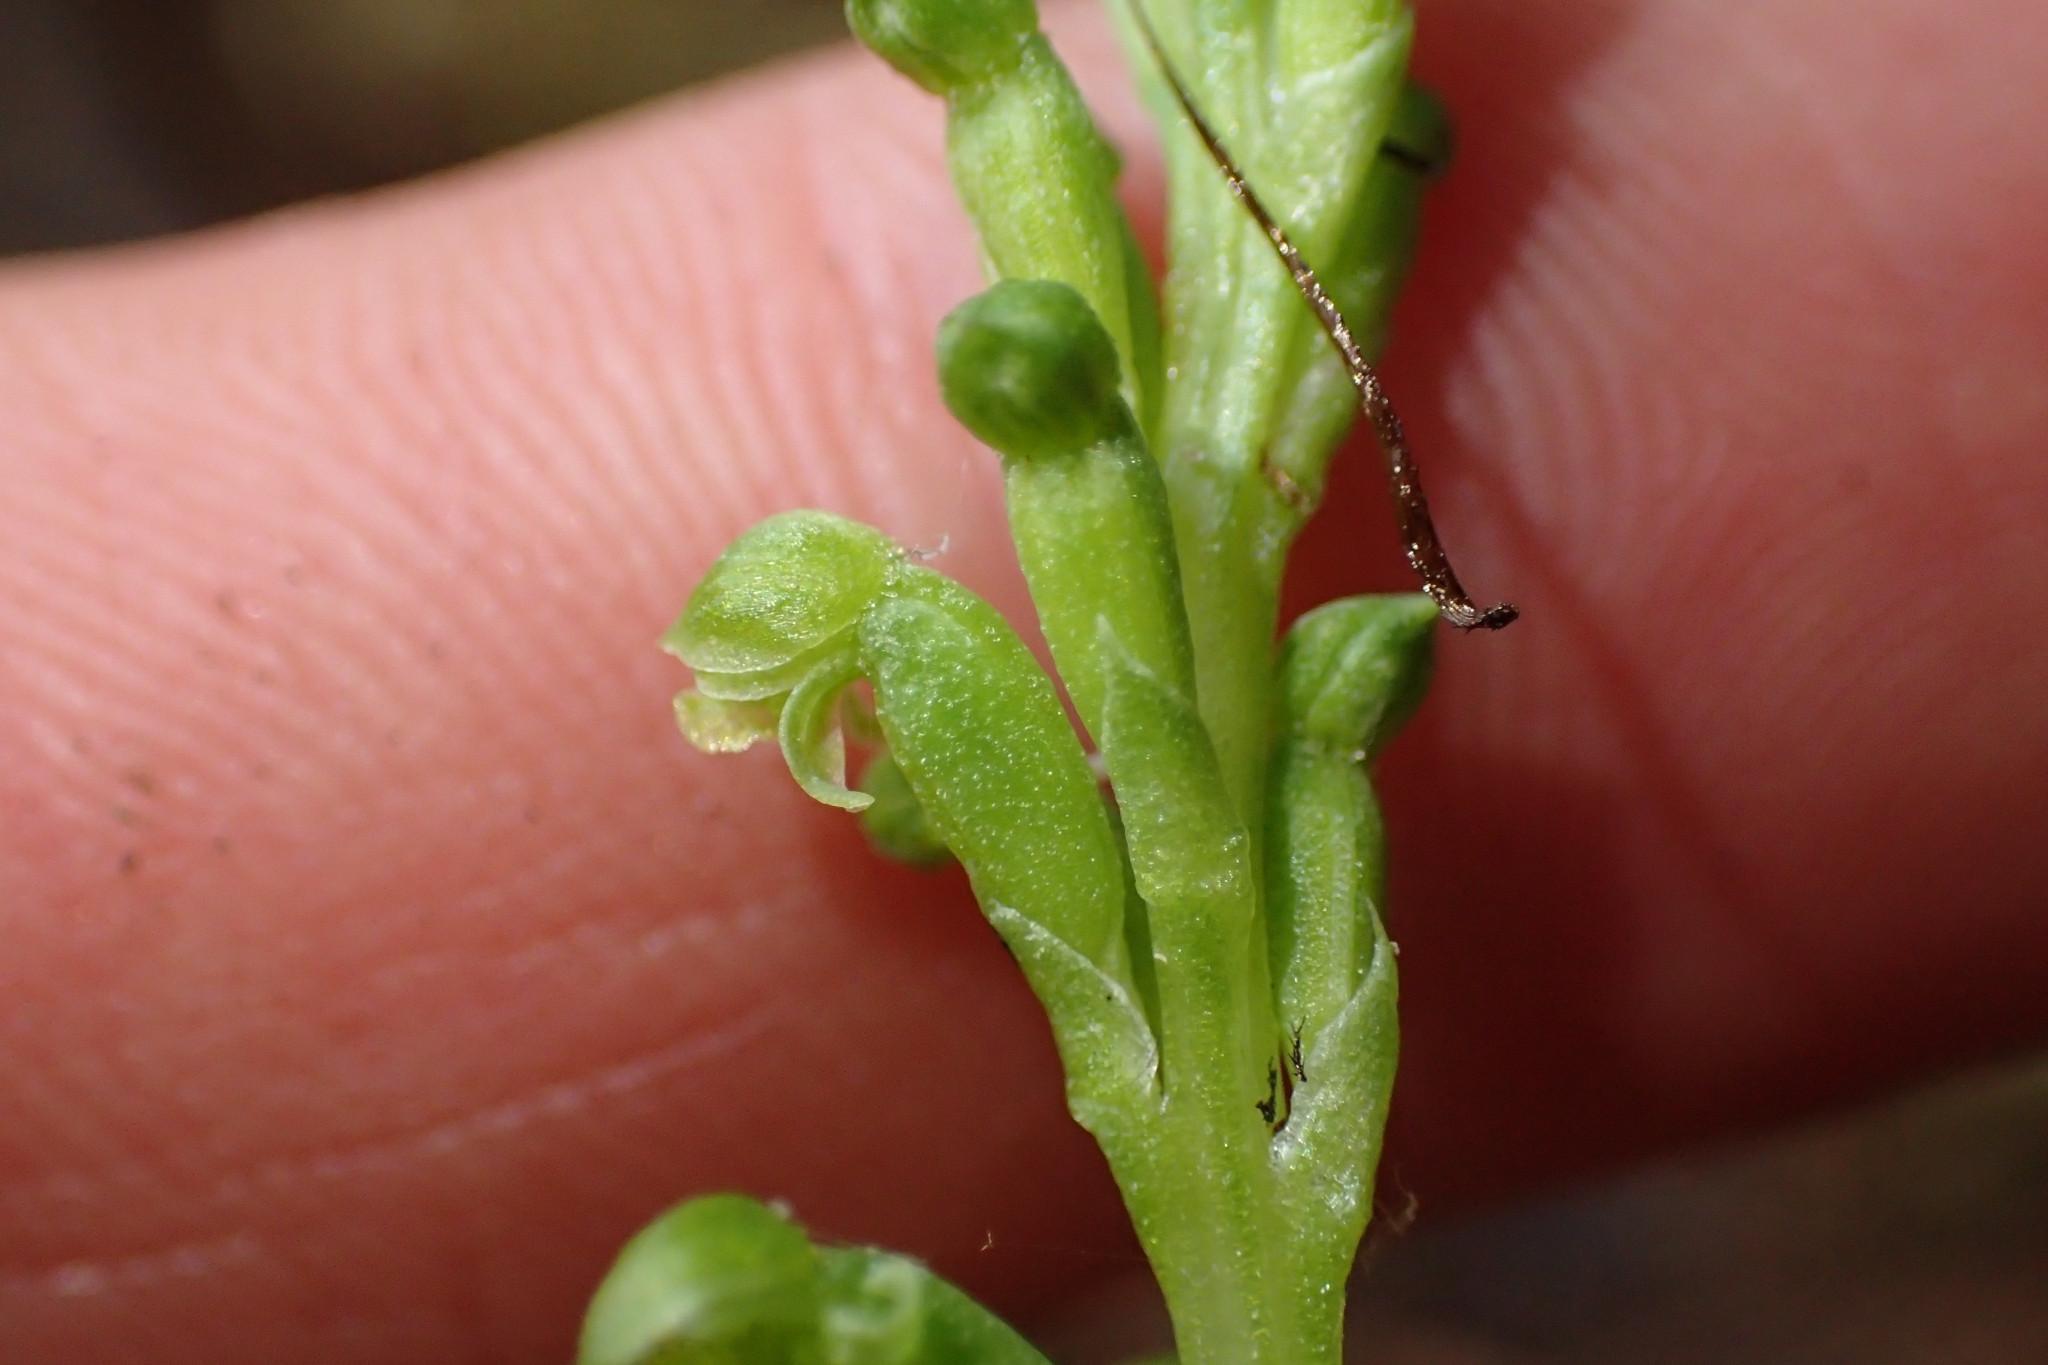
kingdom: Plantae
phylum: Tracheophyta
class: Liliopsida
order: Asparagales
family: Orchidaceae
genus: Microtis
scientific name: Microtis unifolia
